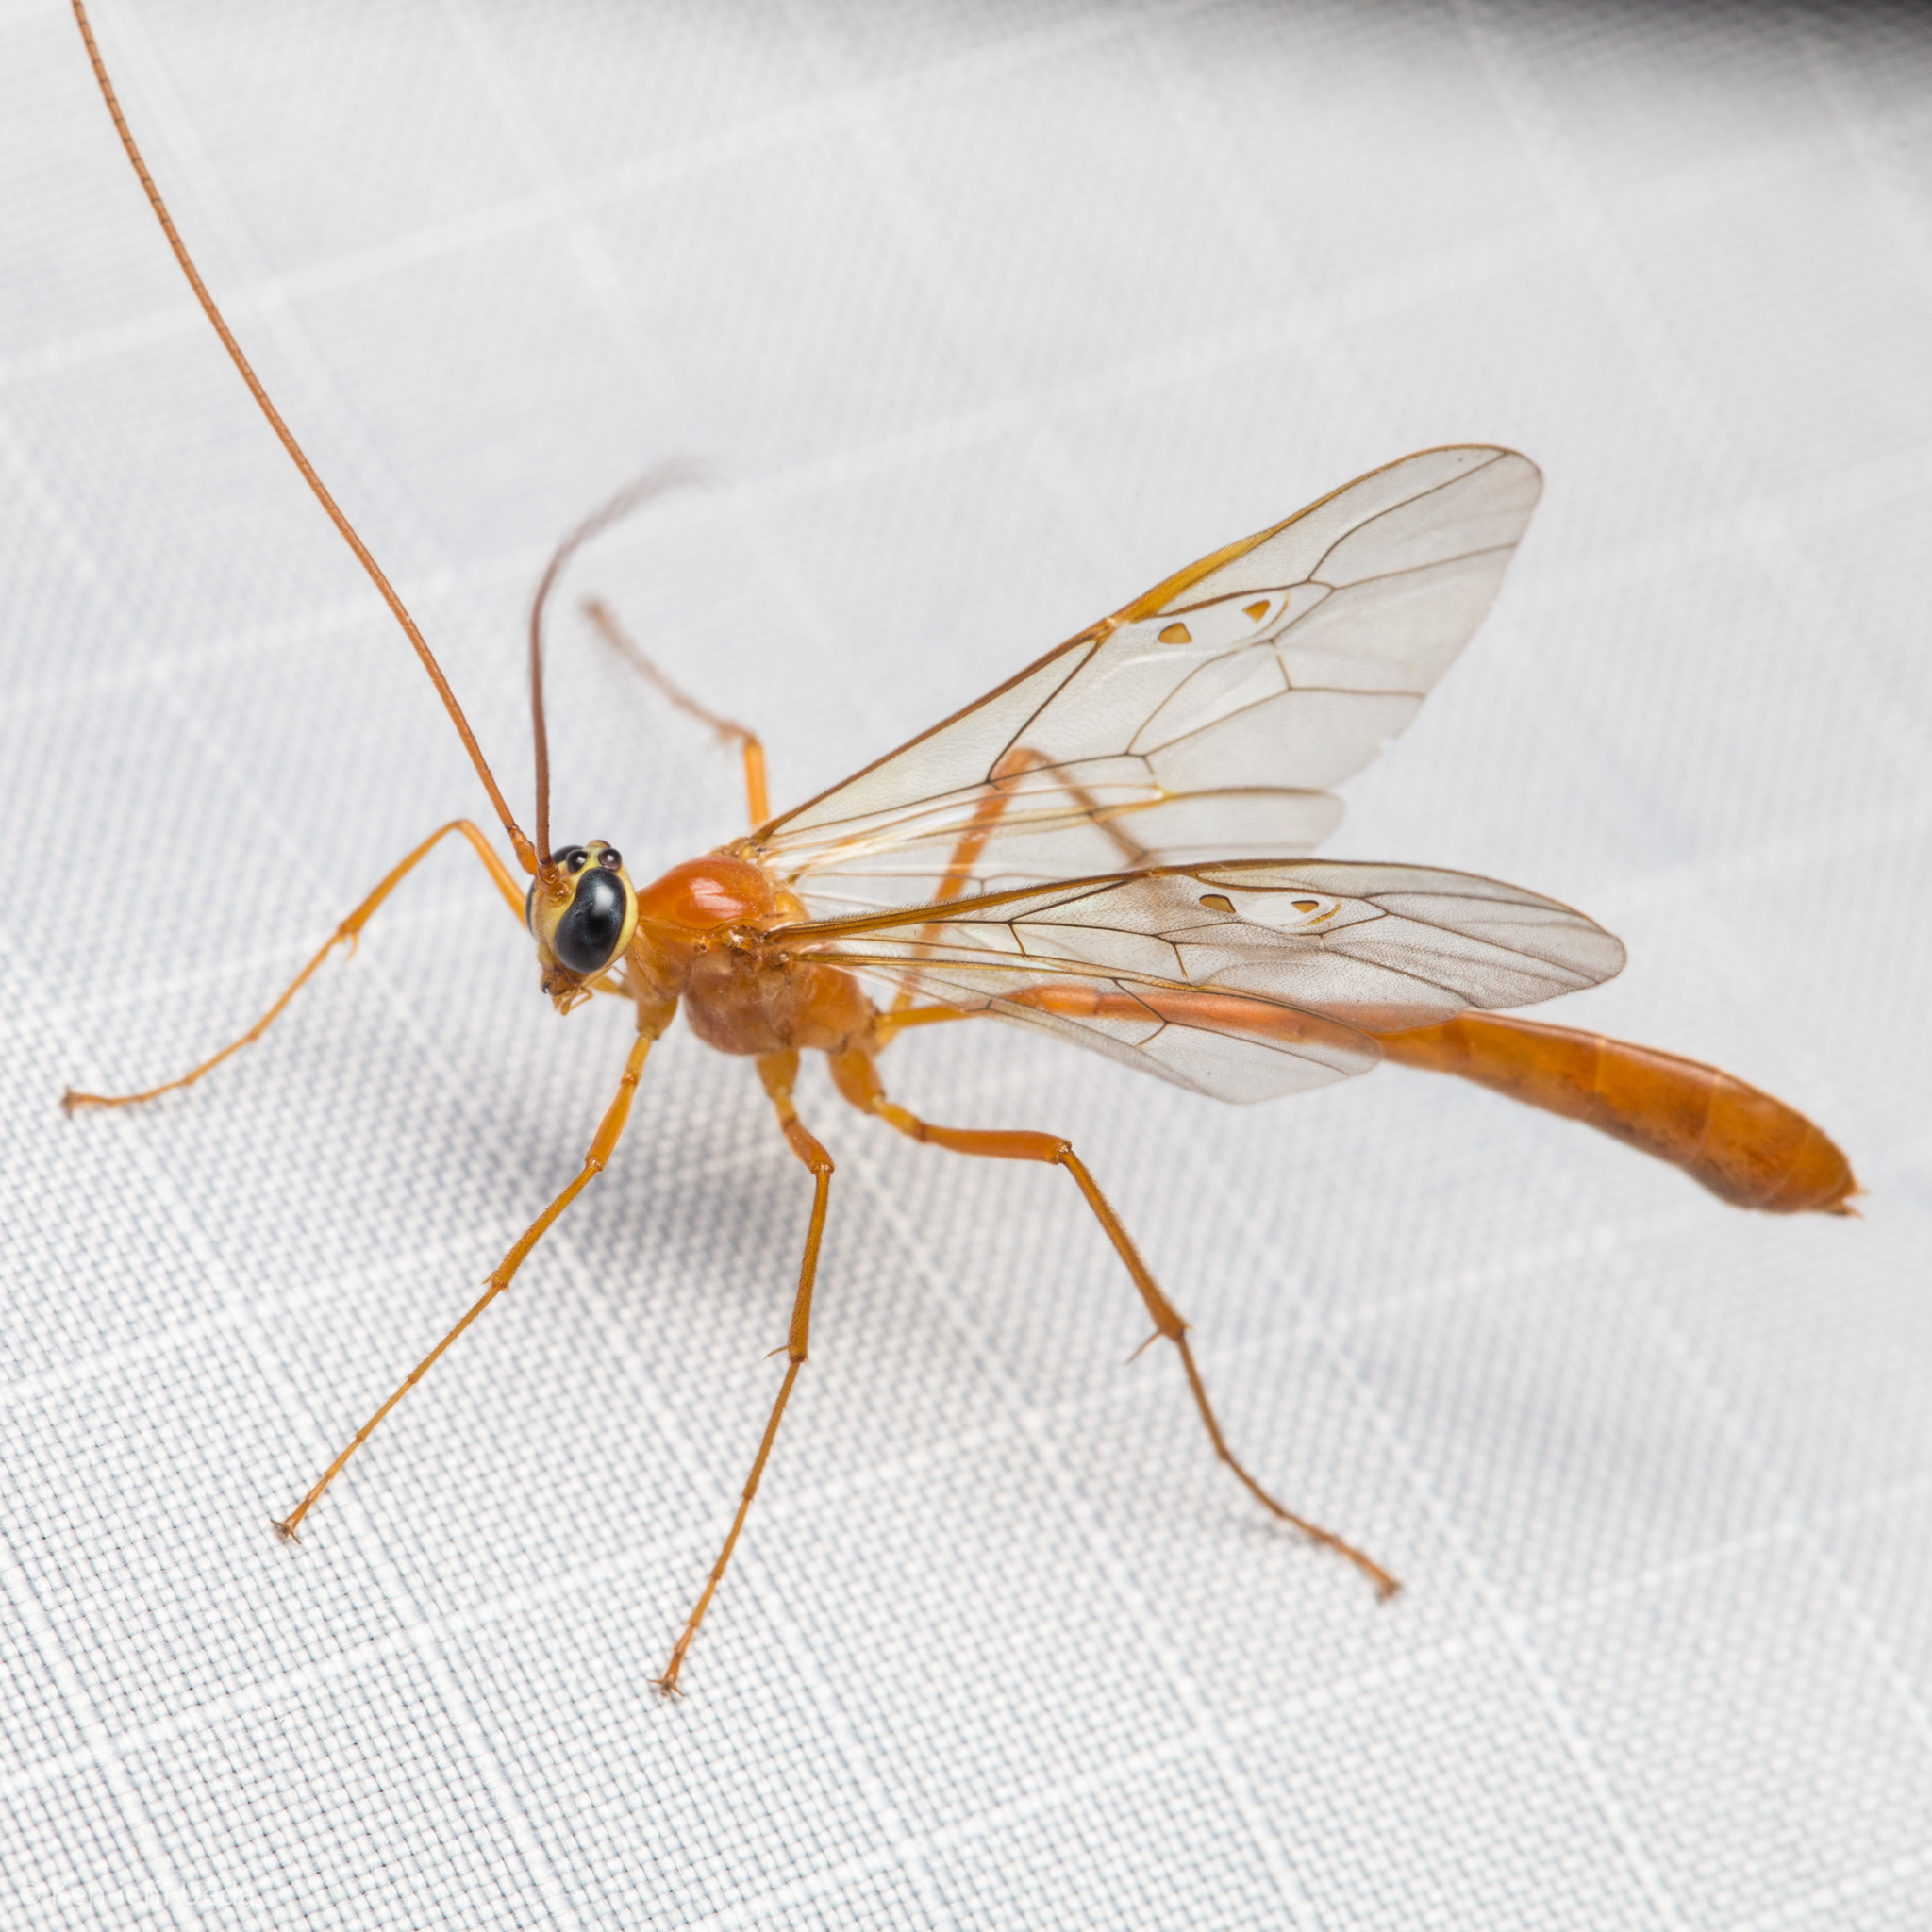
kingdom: Animalia
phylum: Arthropoda
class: Insecta
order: Hymenoptera
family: Ichneumonidae
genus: Enicospilus
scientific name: Enicospilus purgatus
